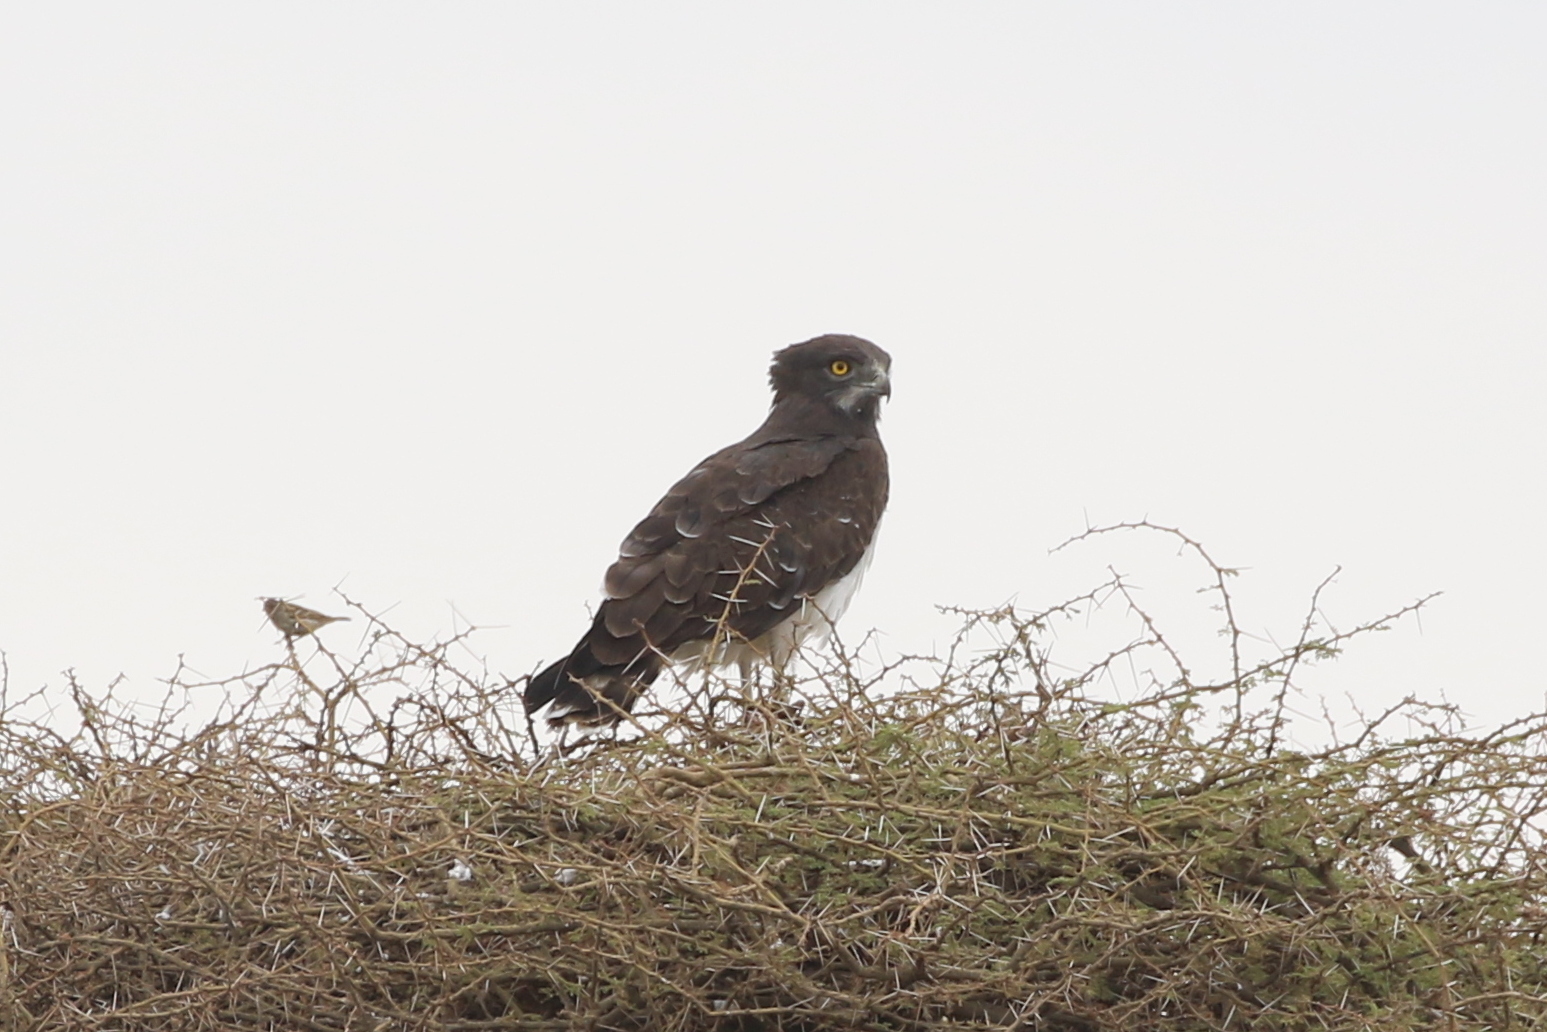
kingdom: Animalia
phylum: Chordata
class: Aves
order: Accipitriformes
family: Accipitridae
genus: Circaetus
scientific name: Circaetus pectoralis
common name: Black-chested snake eagle
